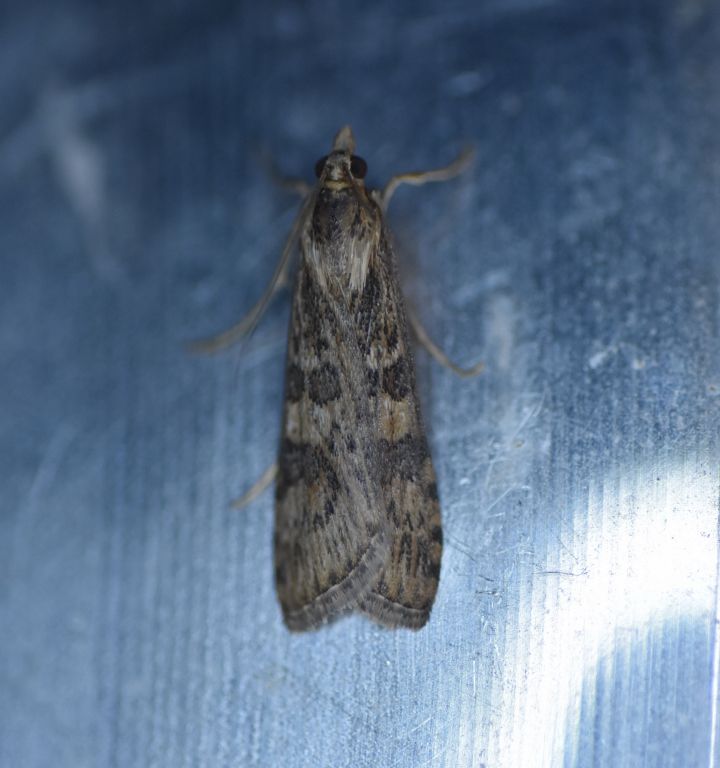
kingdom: Animalia
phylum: Arthropoda
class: Insecta
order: Lepidoptera
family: Crambidae
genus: Nomophila
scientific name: Nomophila nearctica
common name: American rush veneer
